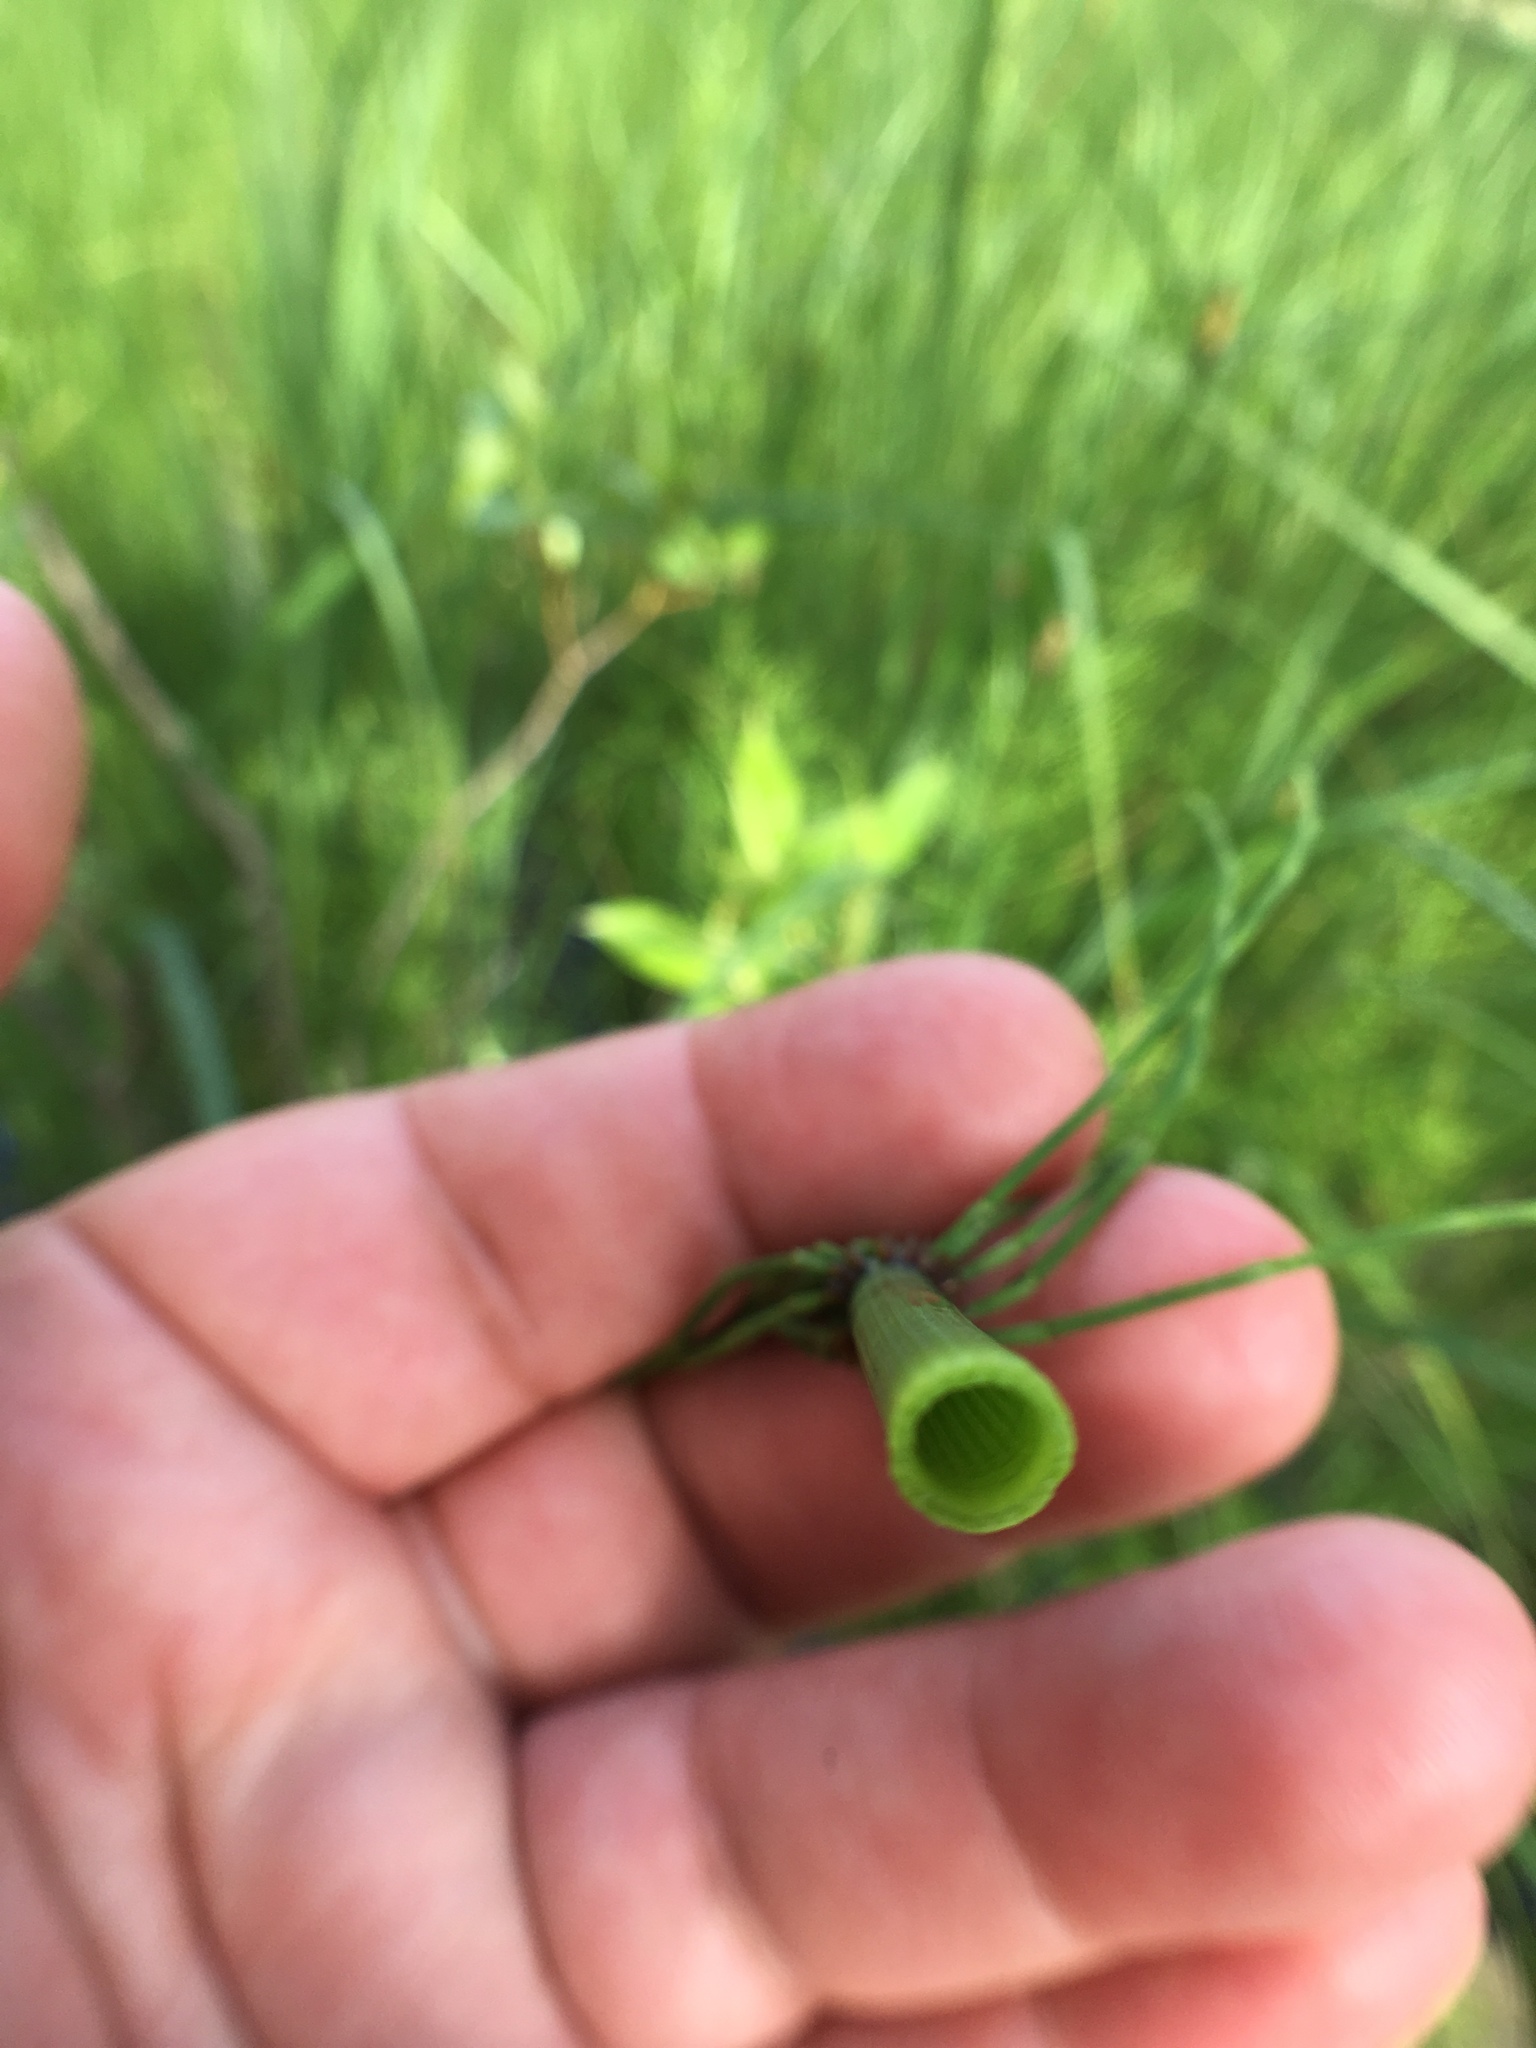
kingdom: Plantae
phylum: Tracheophyta
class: Polypodiopsida
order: Equisetales
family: Equisetaceae
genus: Equisetum
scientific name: Equisetum fluviatile
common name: Water horsetail
